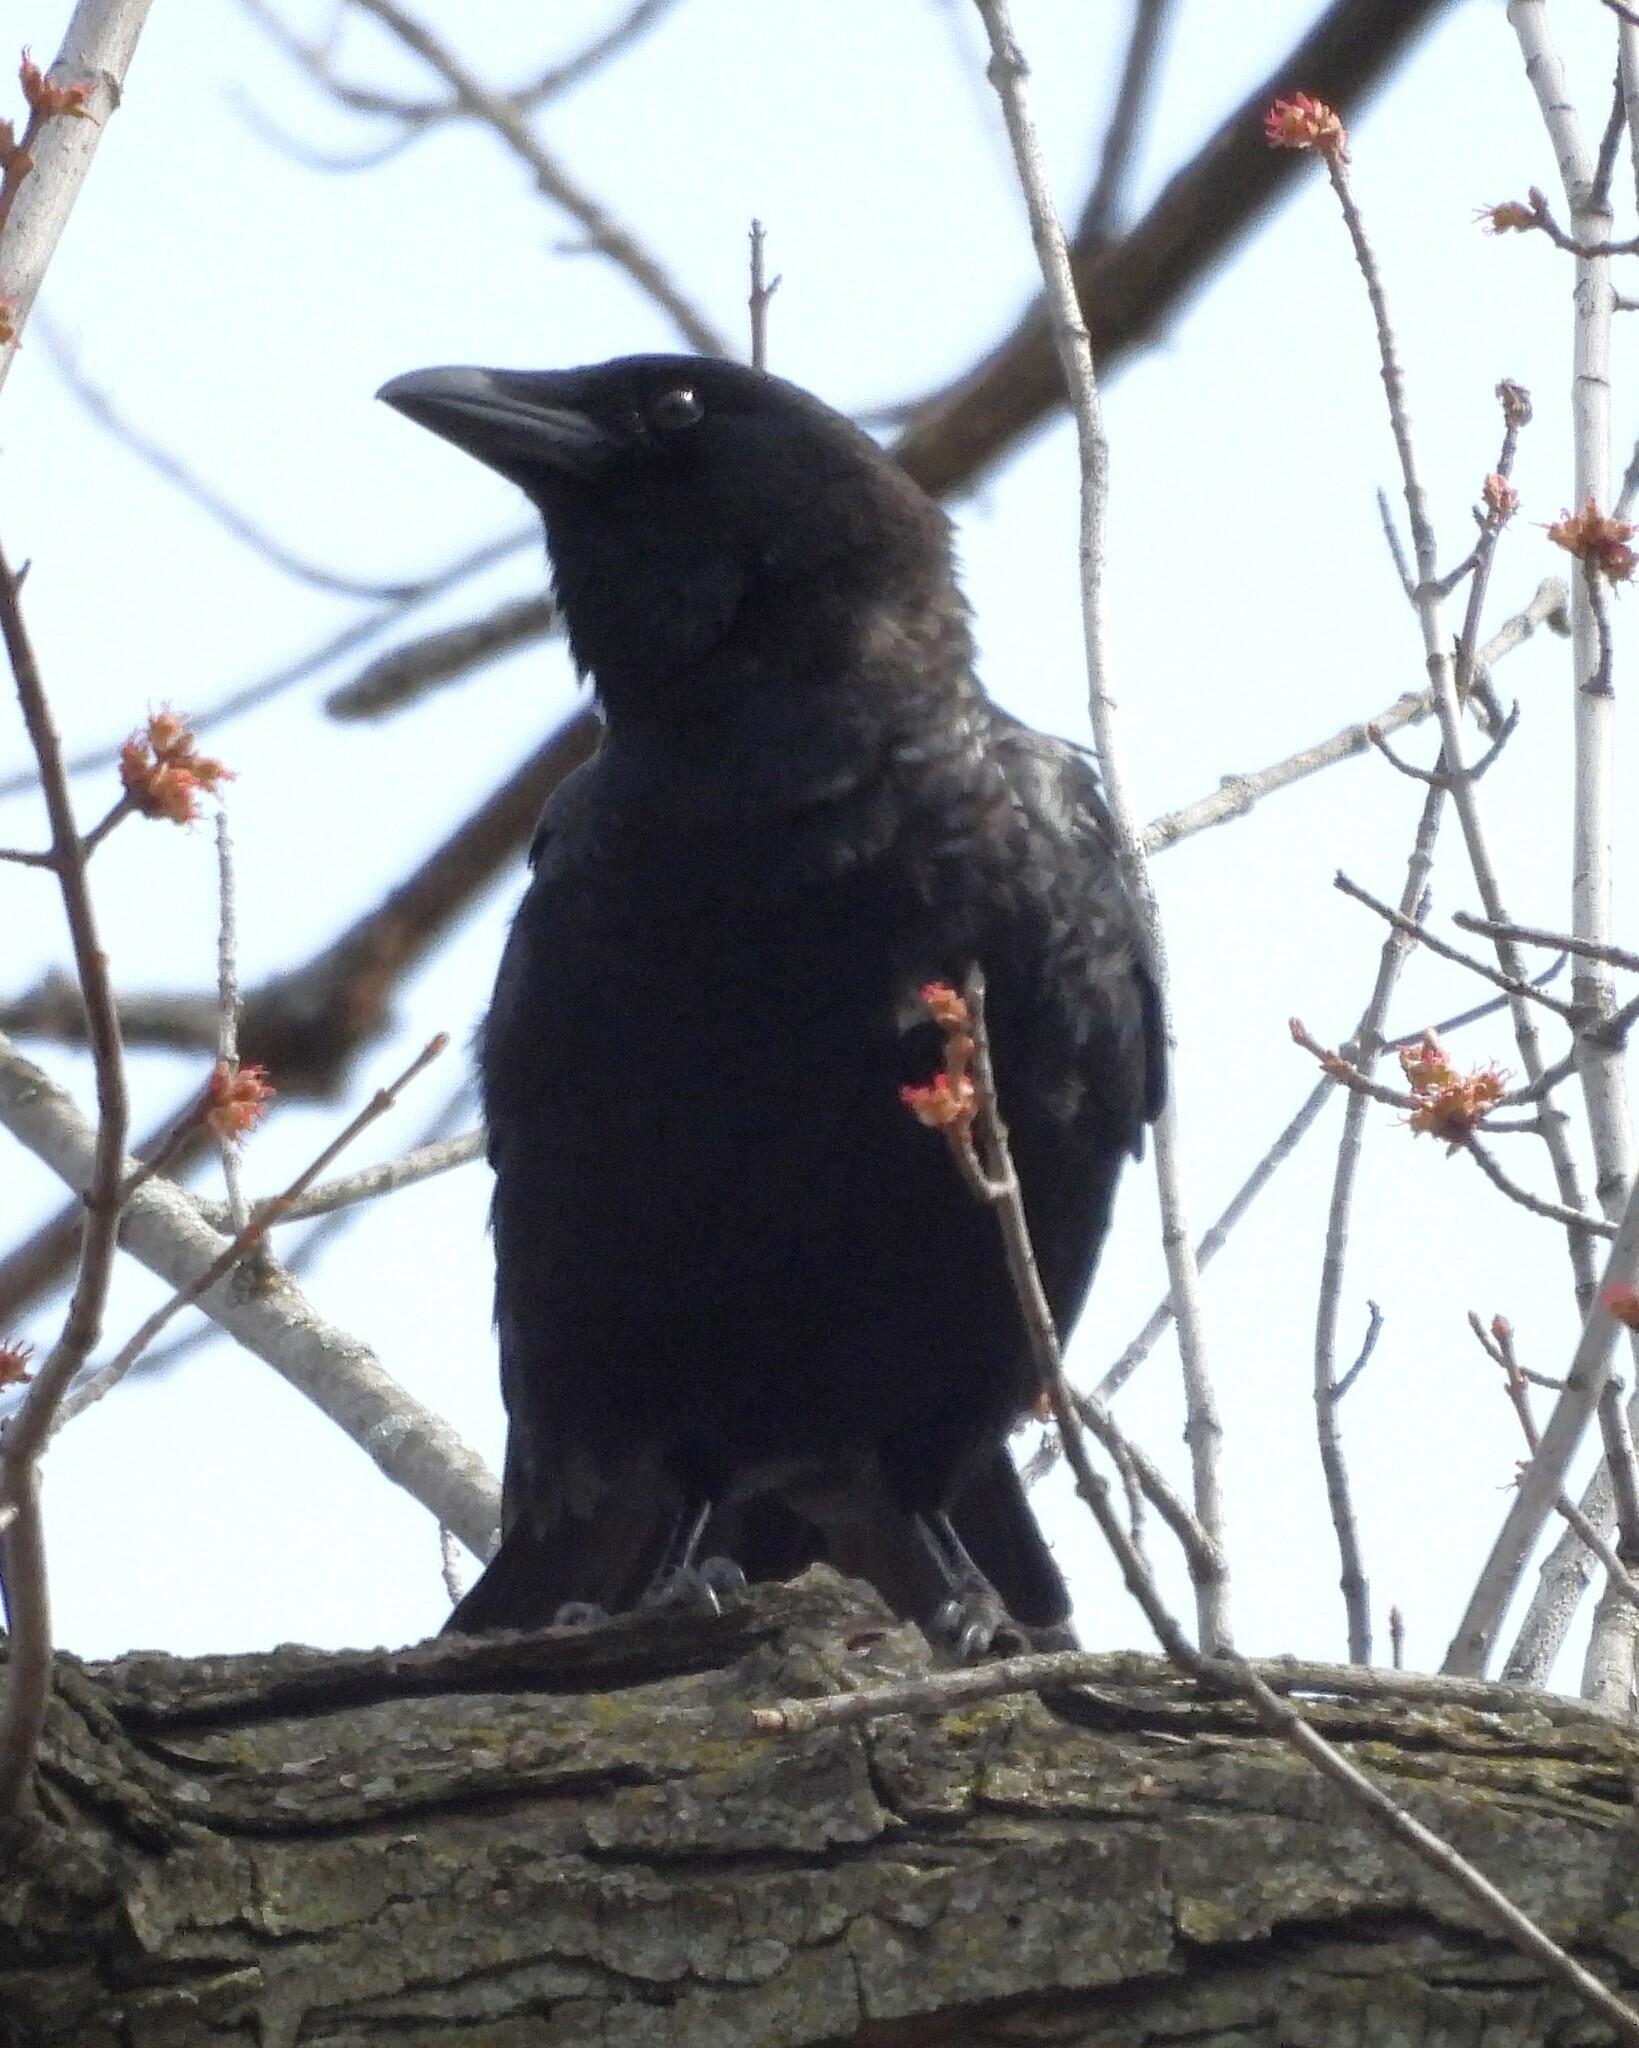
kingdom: Animalia
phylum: Chordata
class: Aves
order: Passeriformes
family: Corvidae
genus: Corvus
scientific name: Corvus brachyrhynchos
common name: American crow
